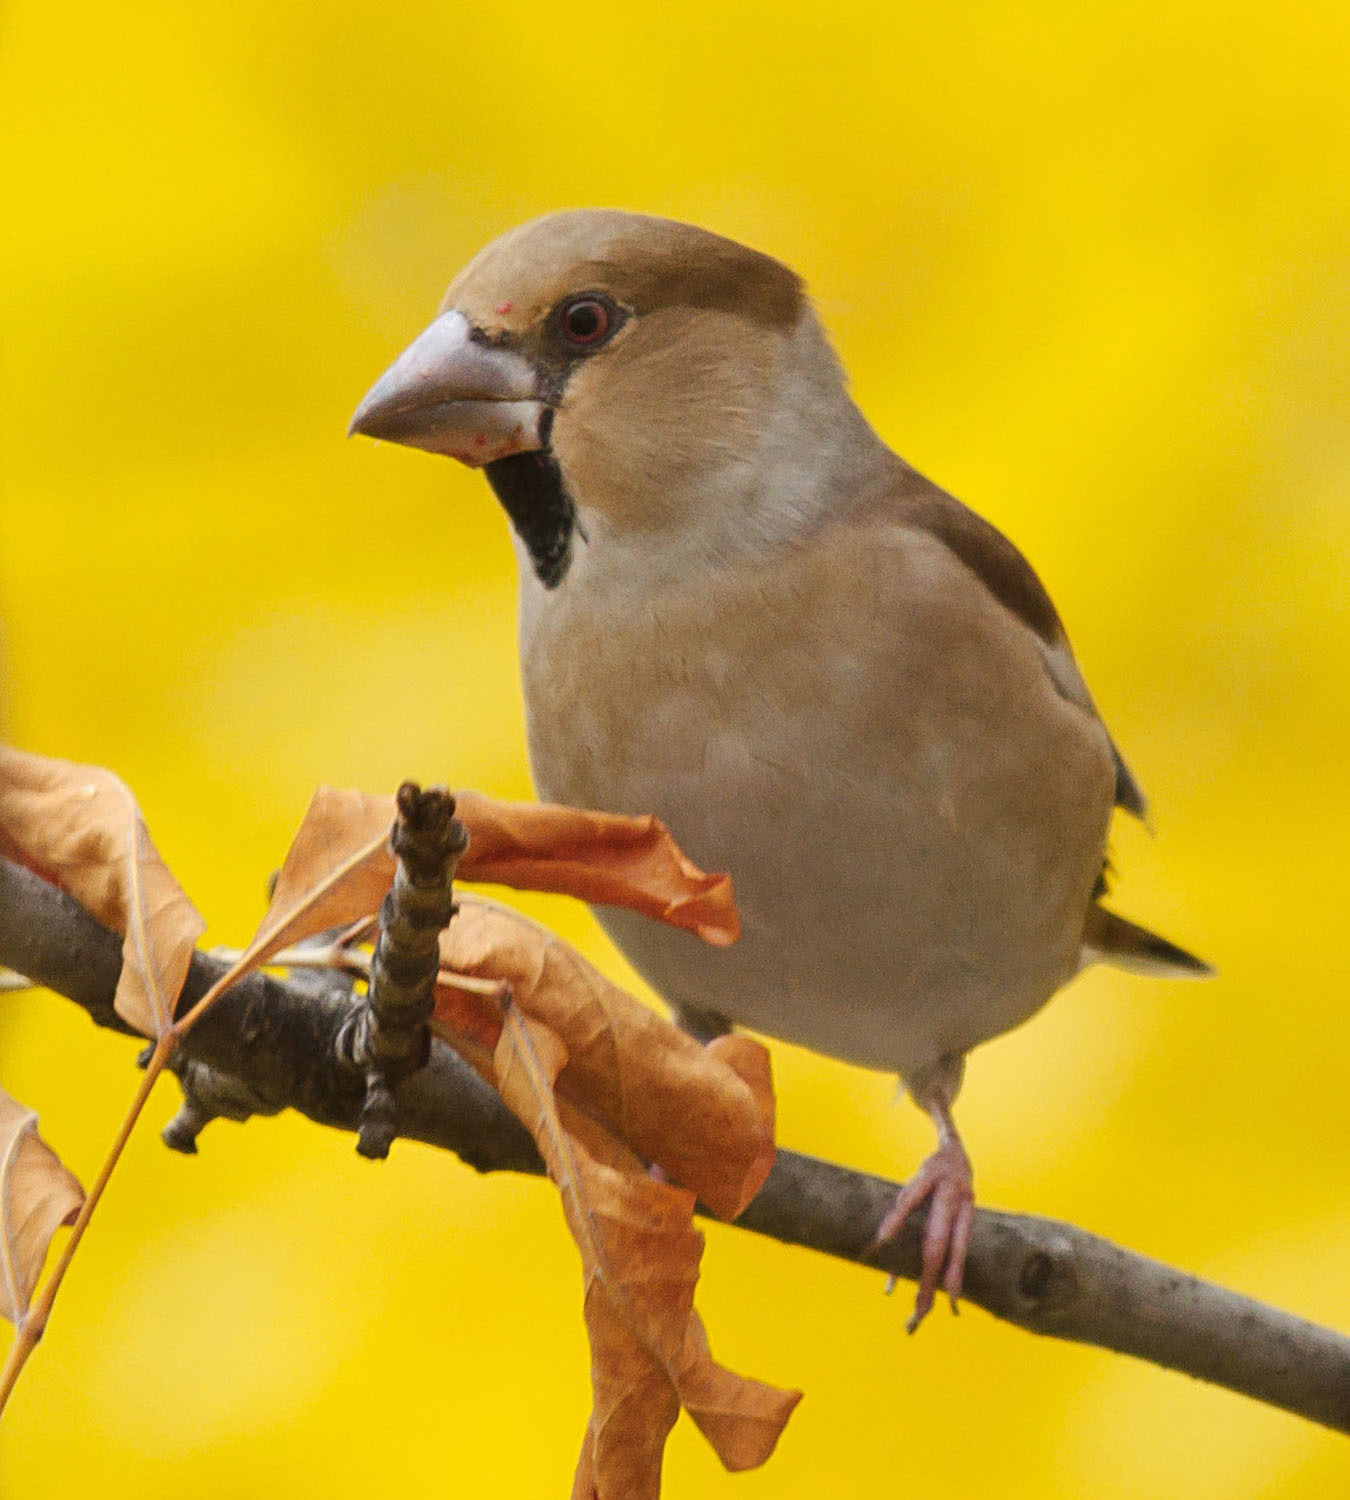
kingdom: Animalia
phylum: Chordata
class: Aves
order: Passeriformes
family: Fringillidae
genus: Coccothraustes
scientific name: Coccothraustes coccothraustes
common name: Hawfinch
